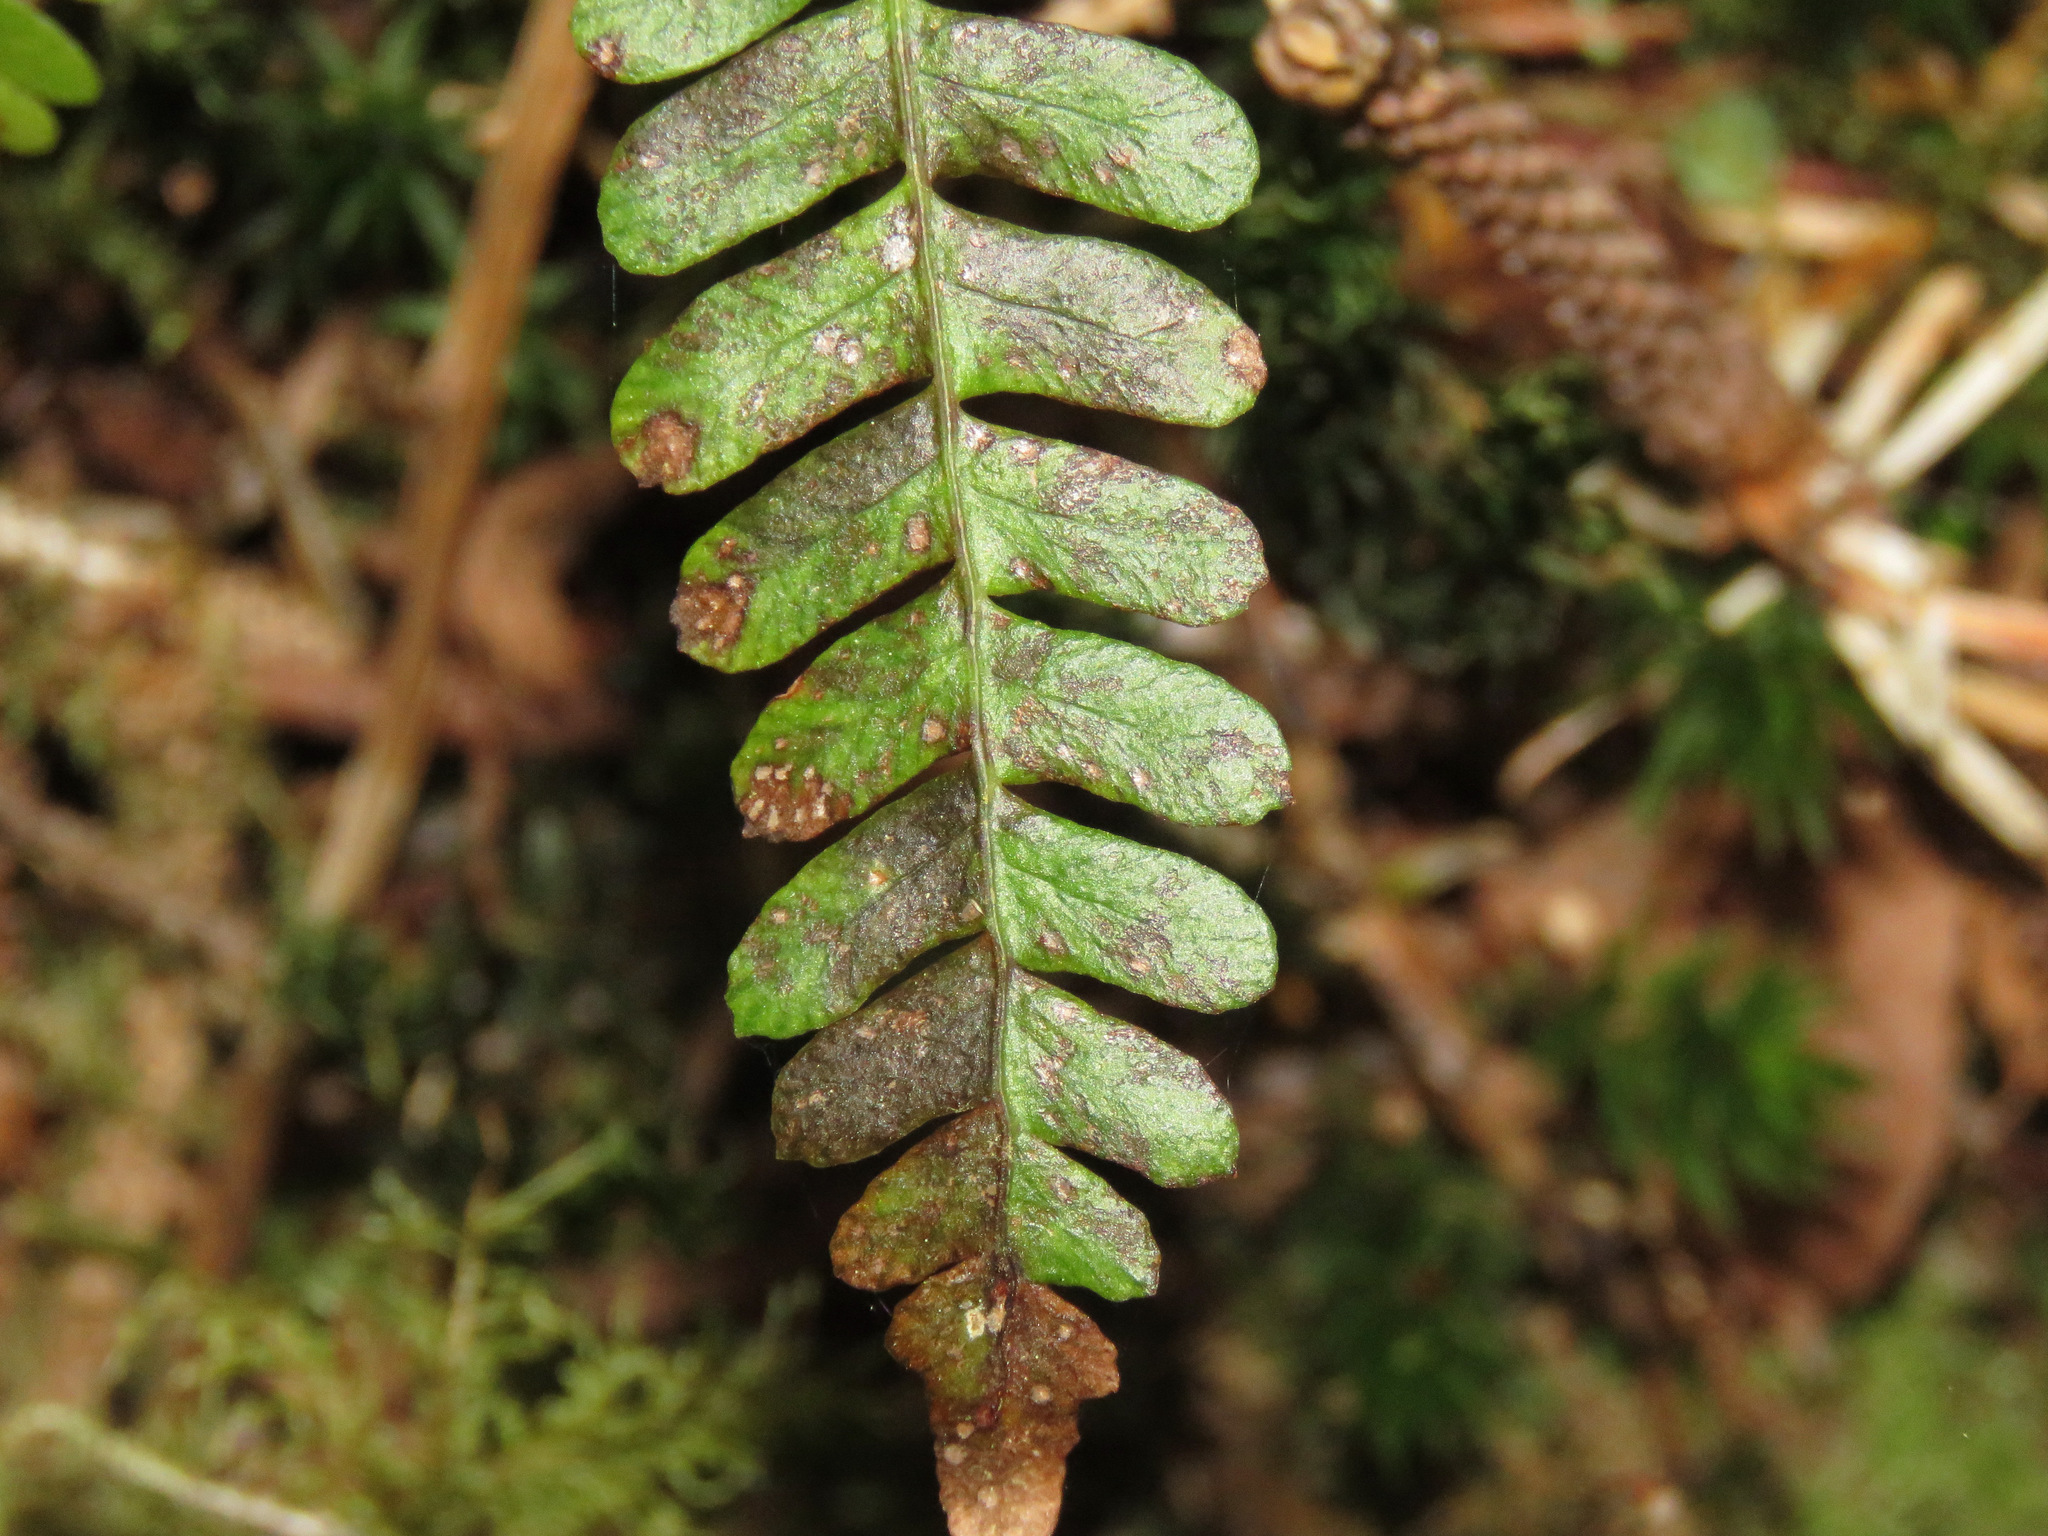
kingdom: Plantae
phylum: Tracheophyta
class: Polypodiopsida
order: Polypodiales
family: Blechnaceae
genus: Struthiopteris
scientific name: Struthiopteris spicant
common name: Deer fern
